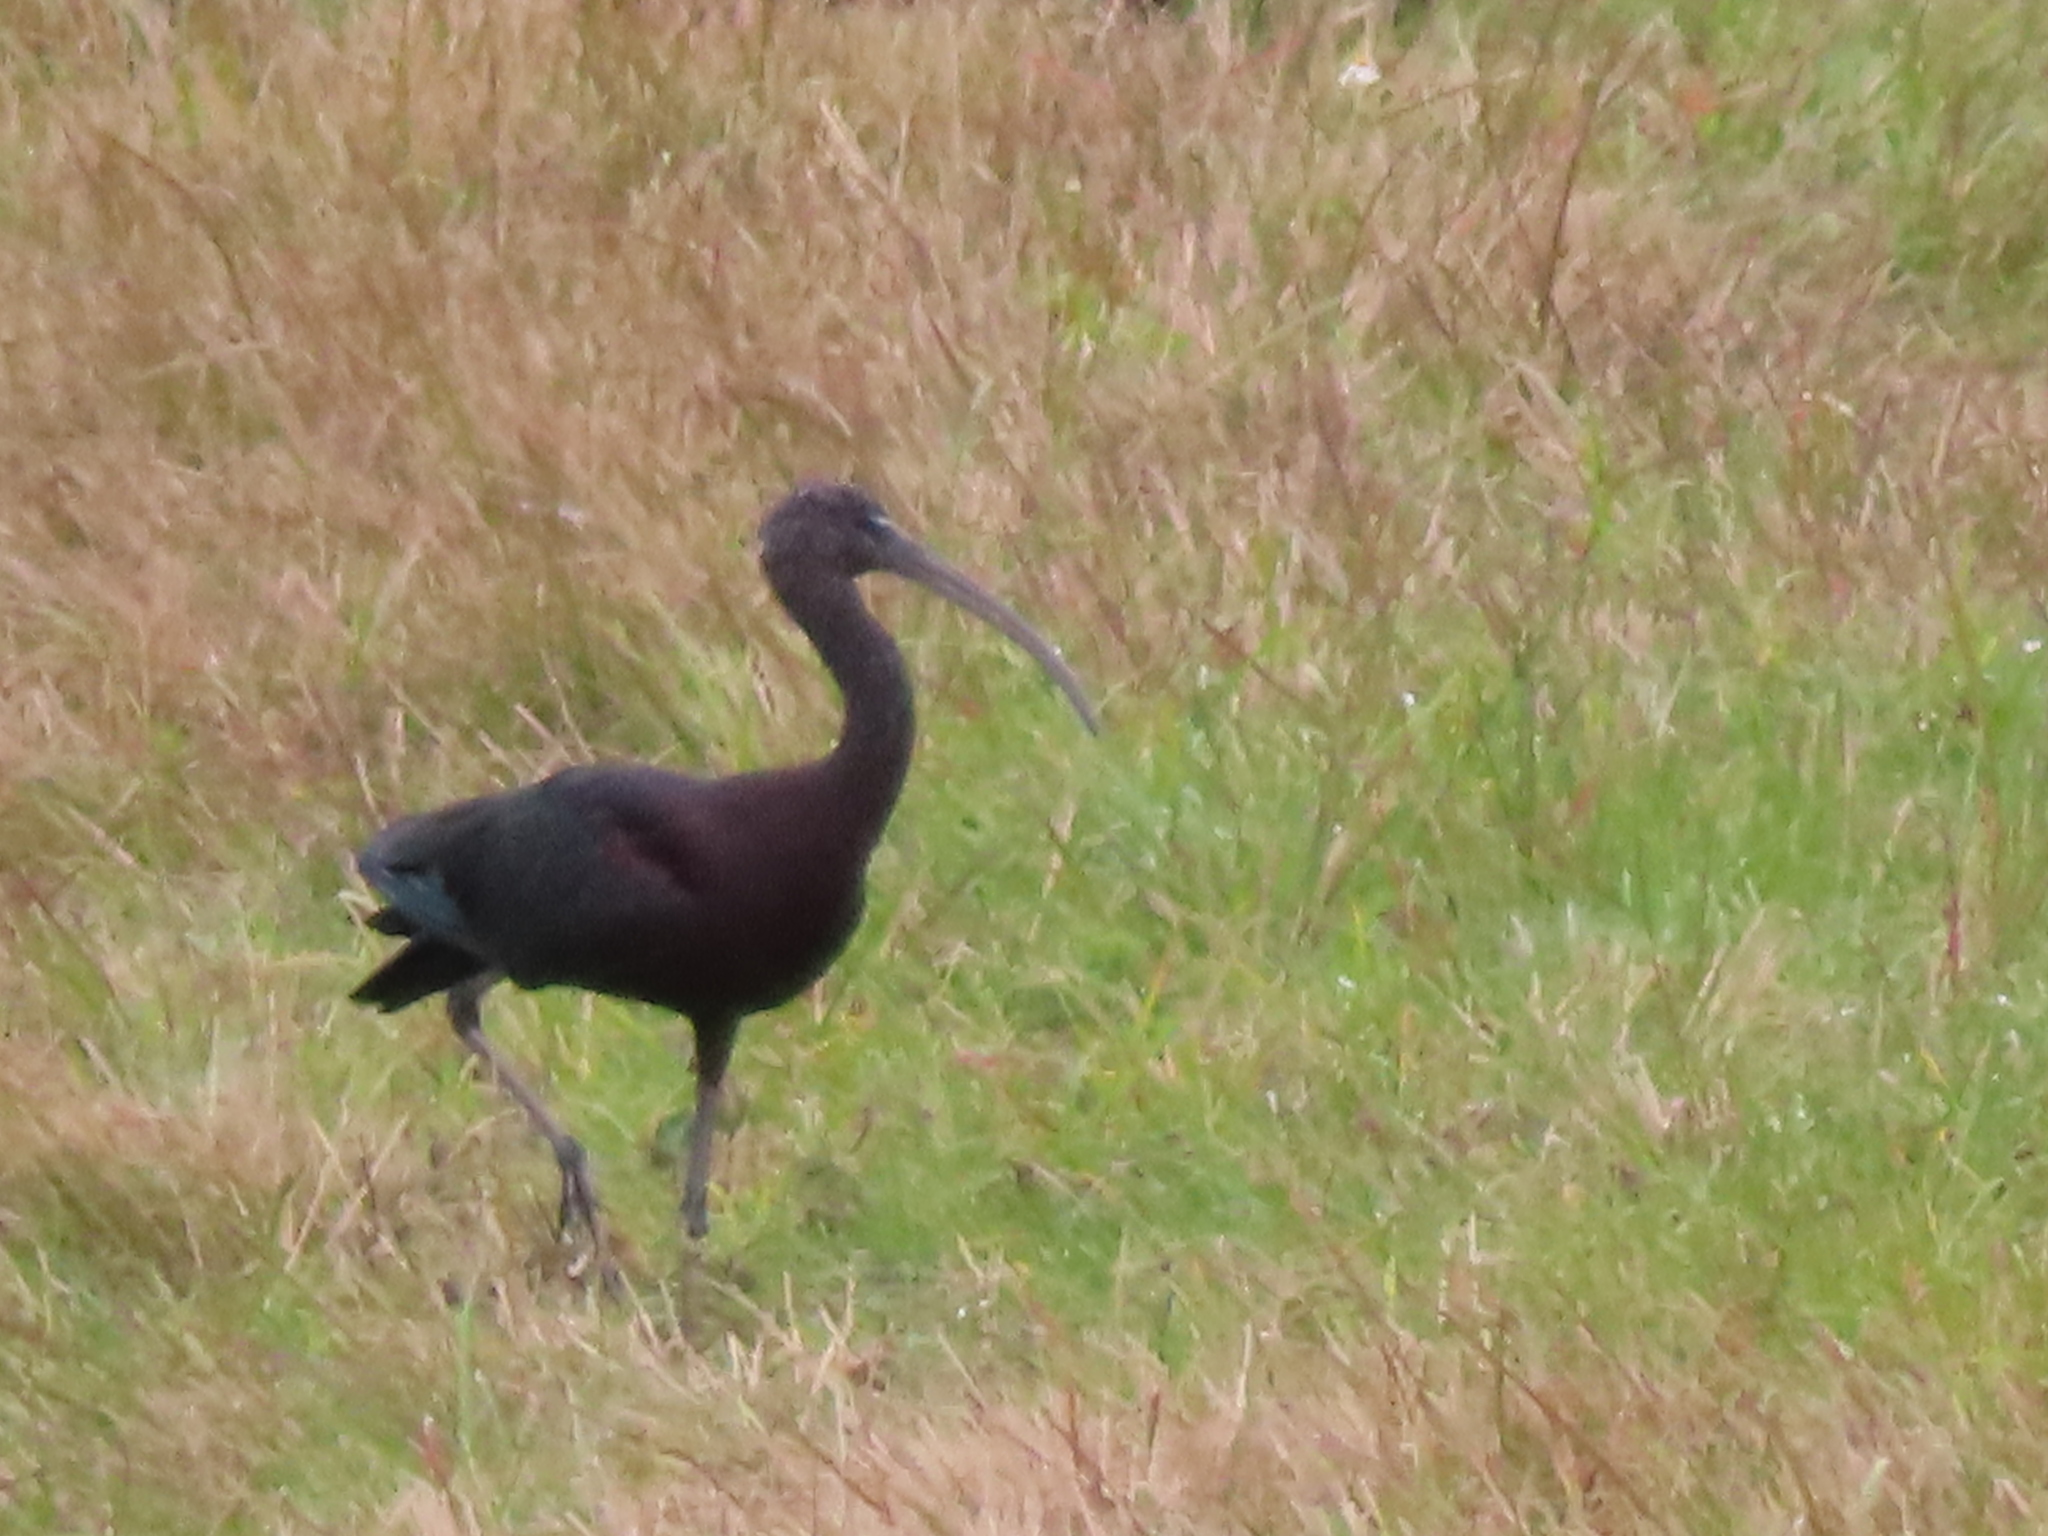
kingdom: Animalia
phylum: Chordata
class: Aves
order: Pelecaniformes
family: Threskiornithidae
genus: Plegadis
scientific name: Plegadis falcinellus
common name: Glossy ibis
